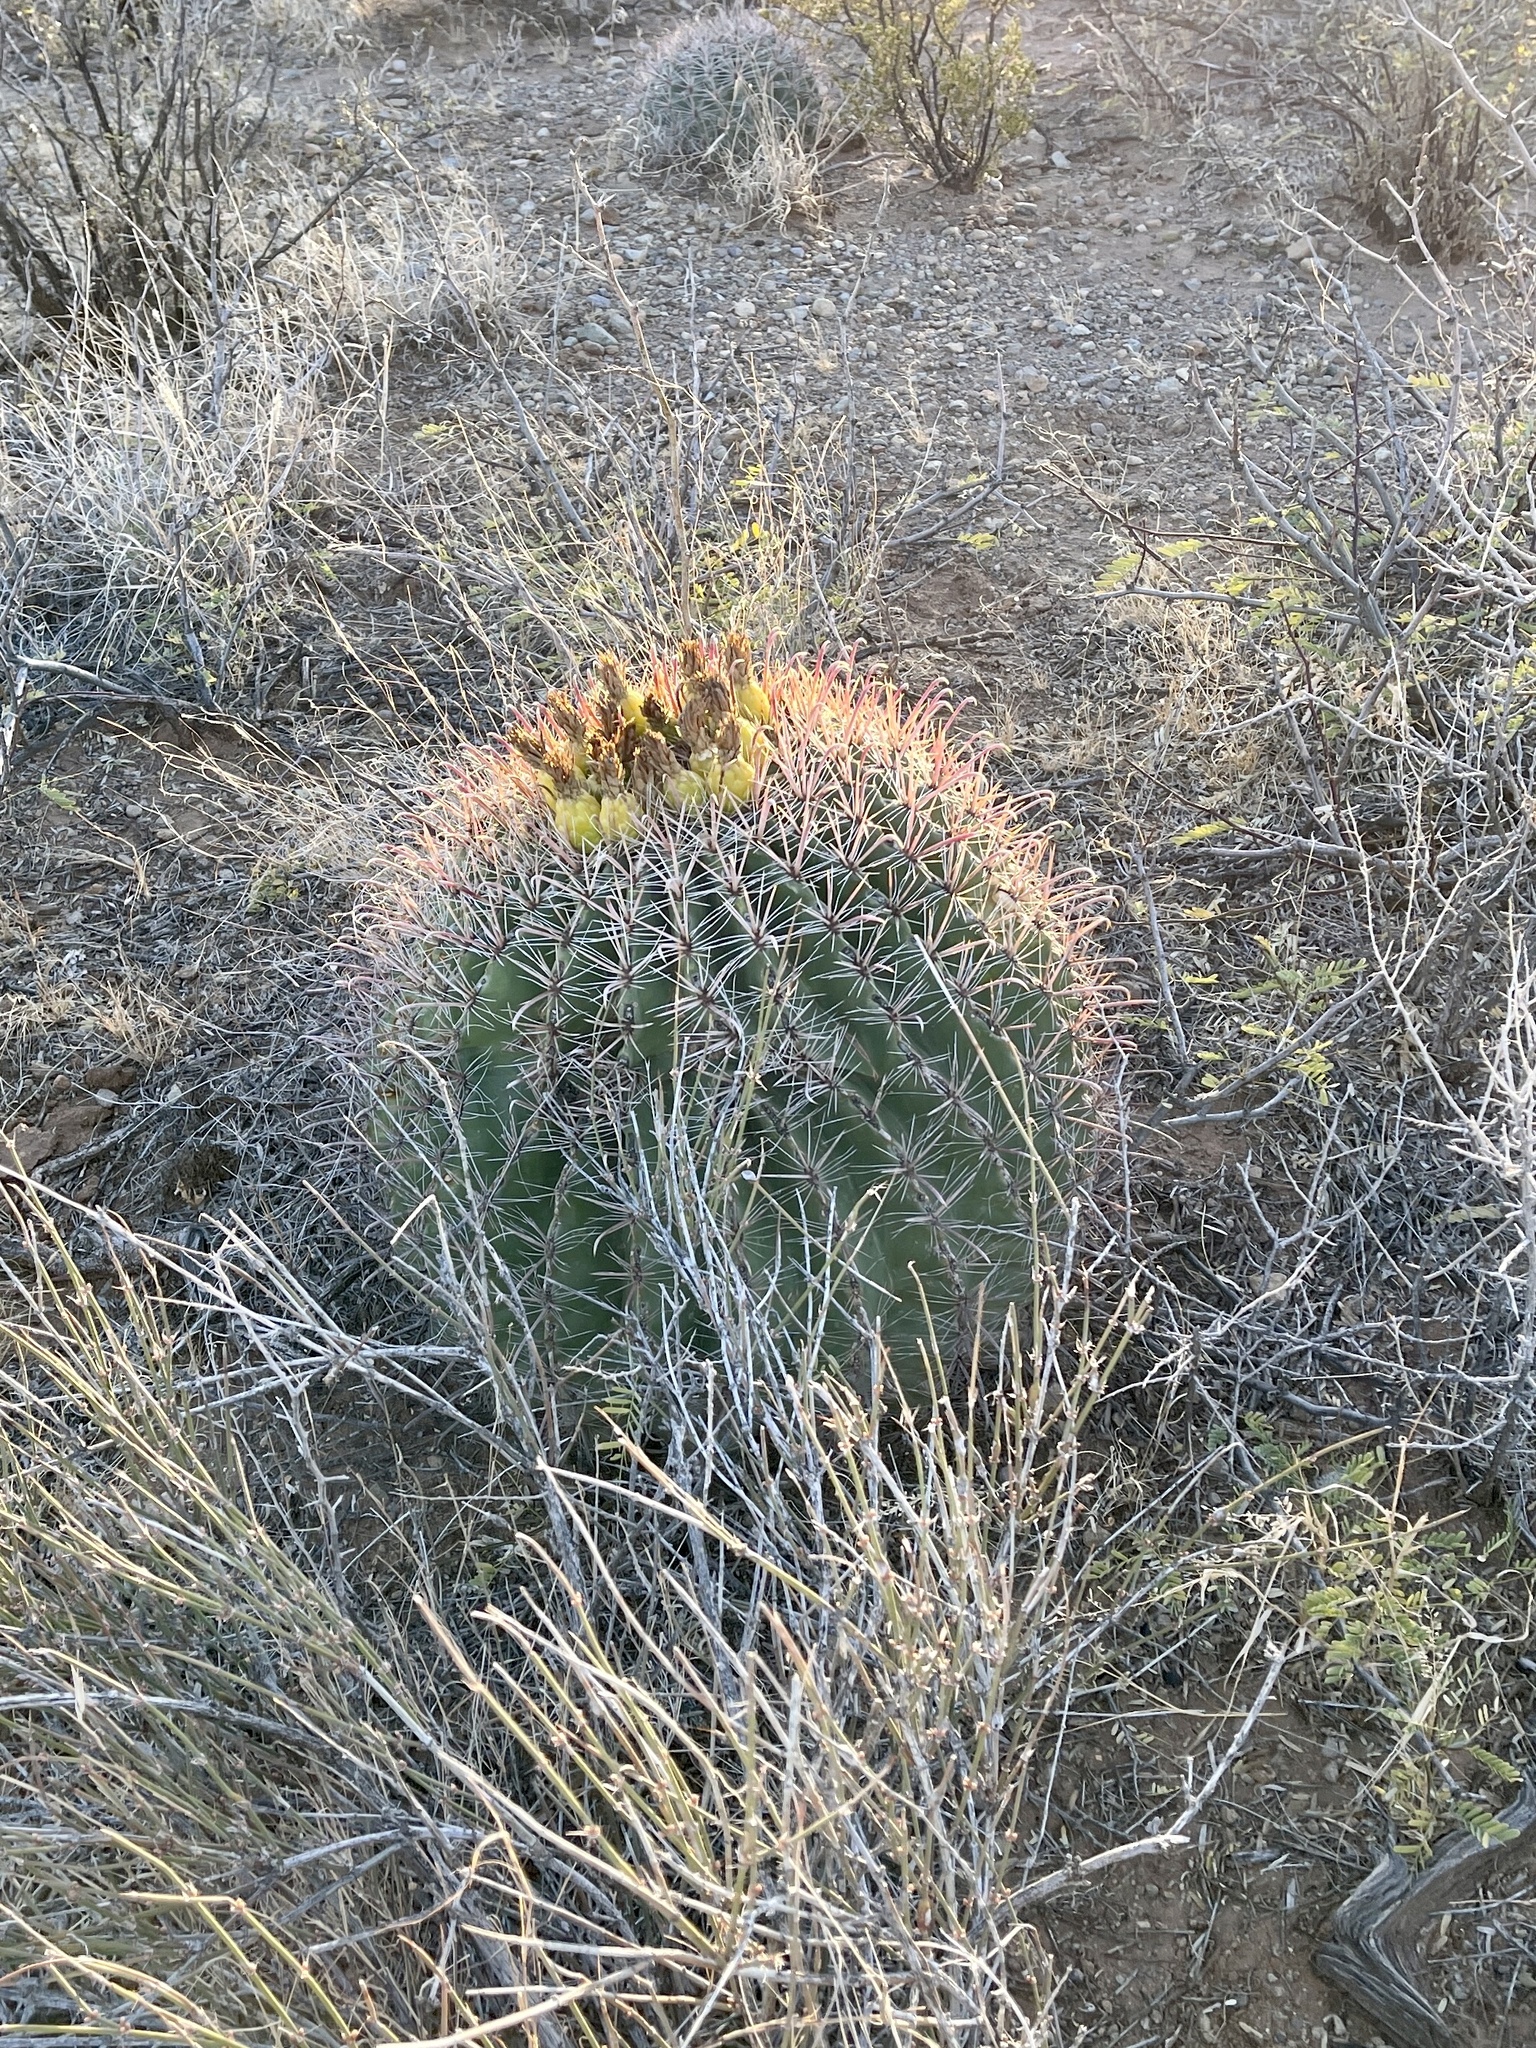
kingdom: Plantae
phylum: Tracheophyta
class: Magnoliopsida
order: Caryophyllales
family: Cactaceae
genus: Ferocactus
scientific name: Ferocactus wislizeni
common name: Candy barrel cactus
